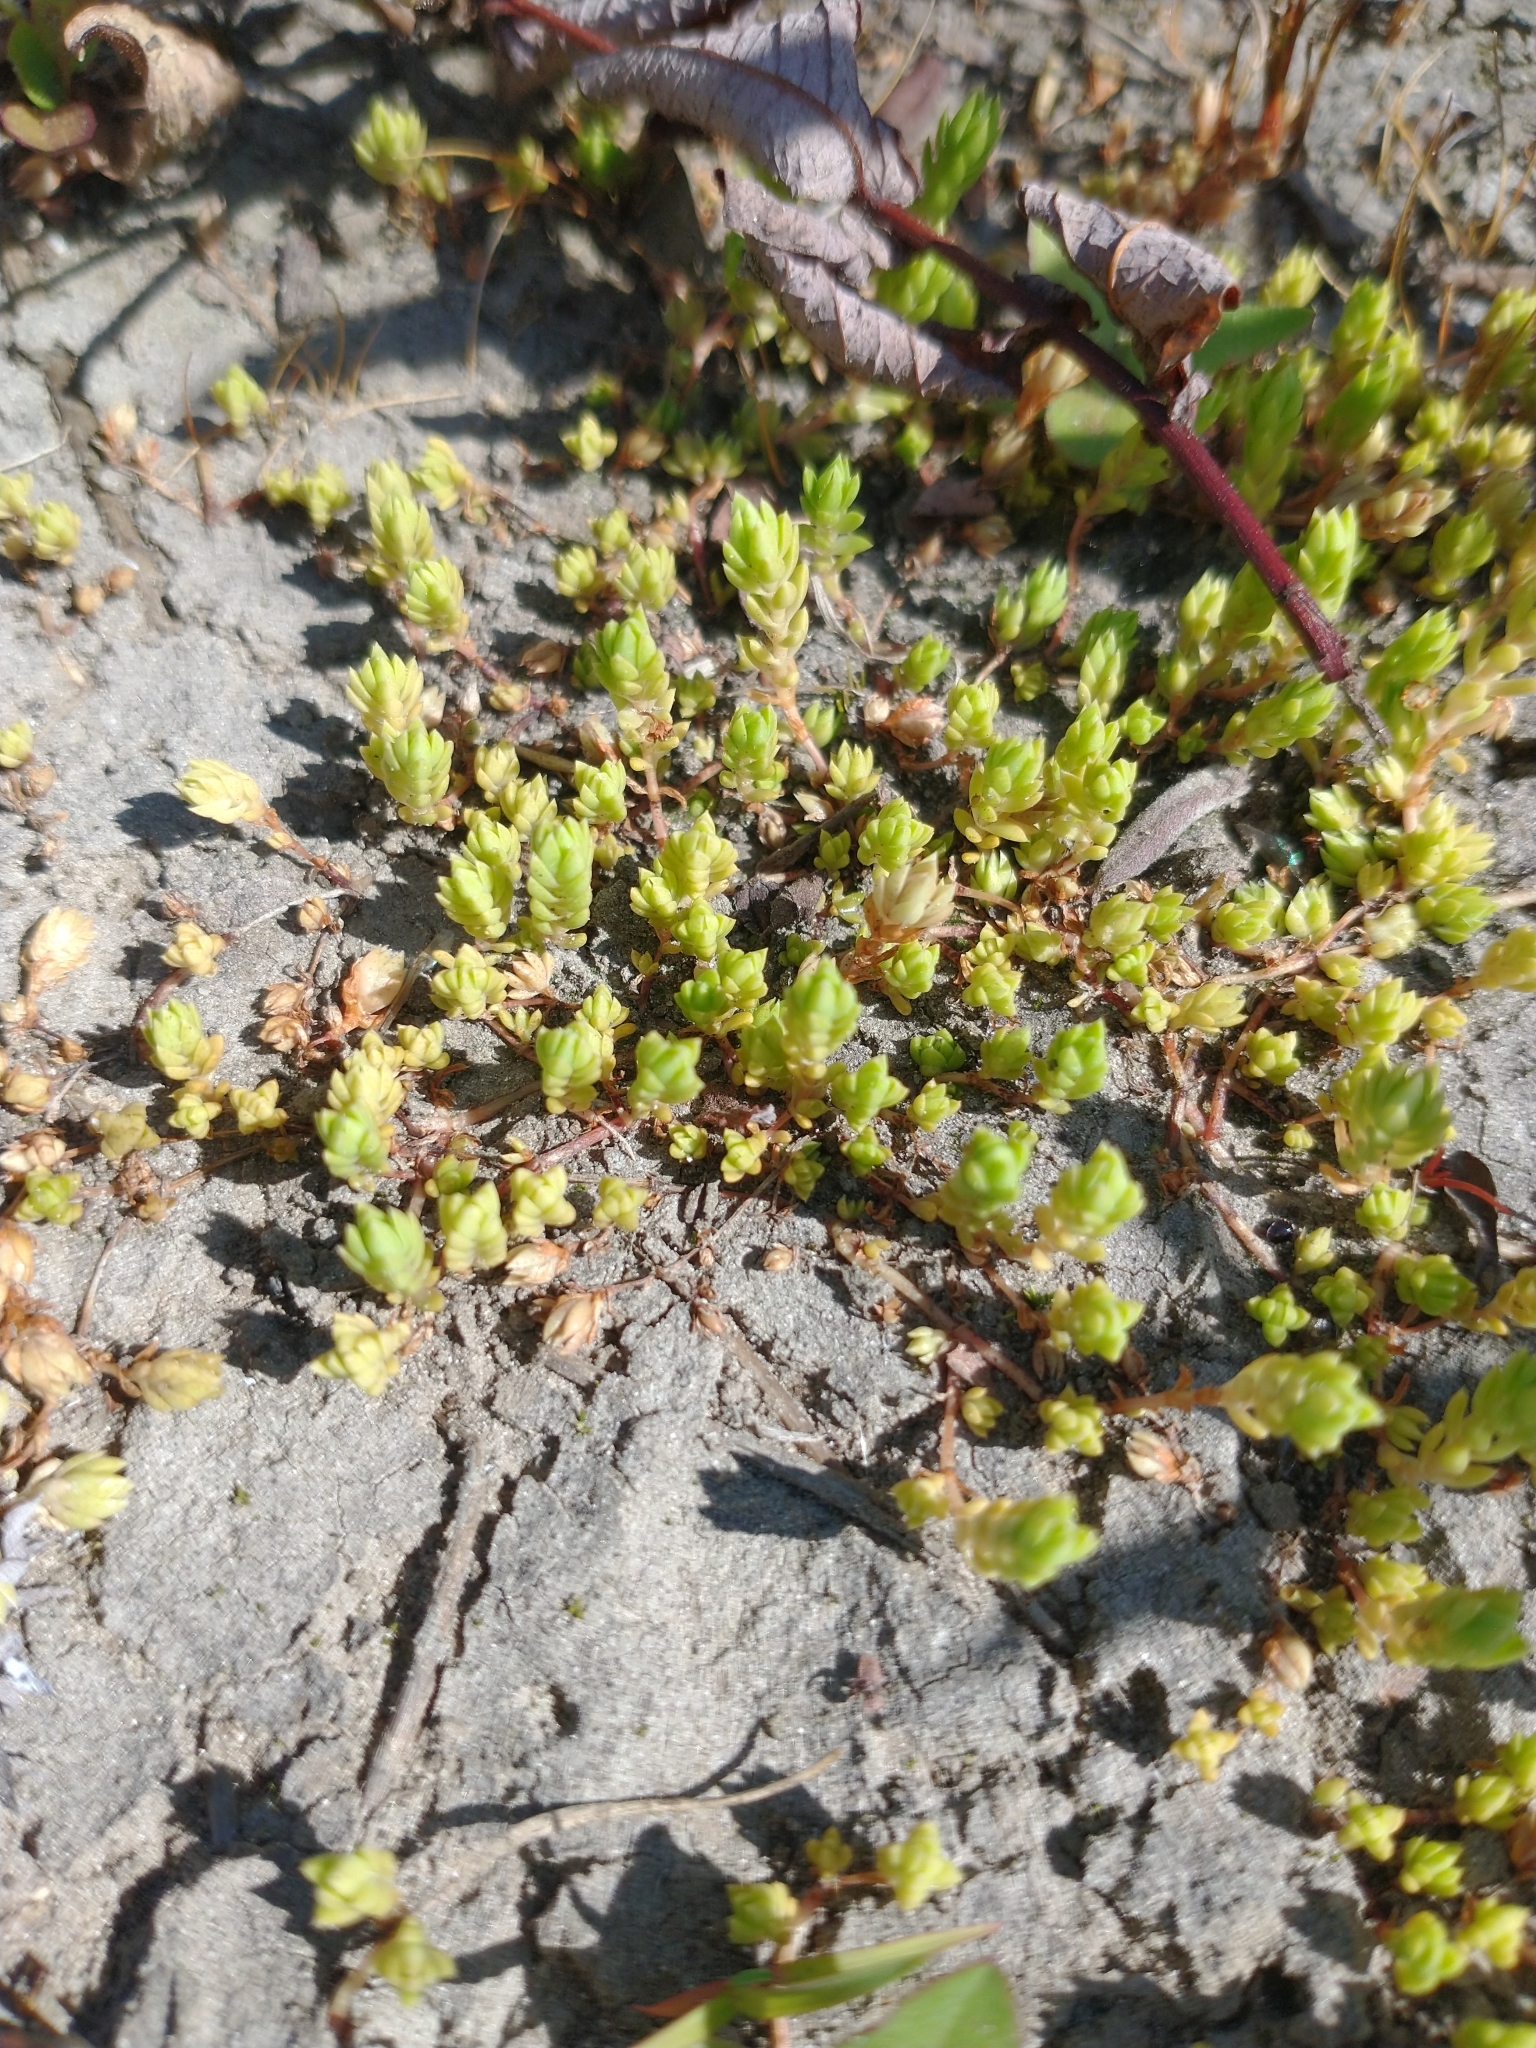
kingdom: Plantae
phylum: Tracheophyta
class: Magnoliopsida
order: Saxifragales
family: Crassulaceae
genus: Crassula
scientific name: Crassula helmsii
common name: New zealand pigmyweed
